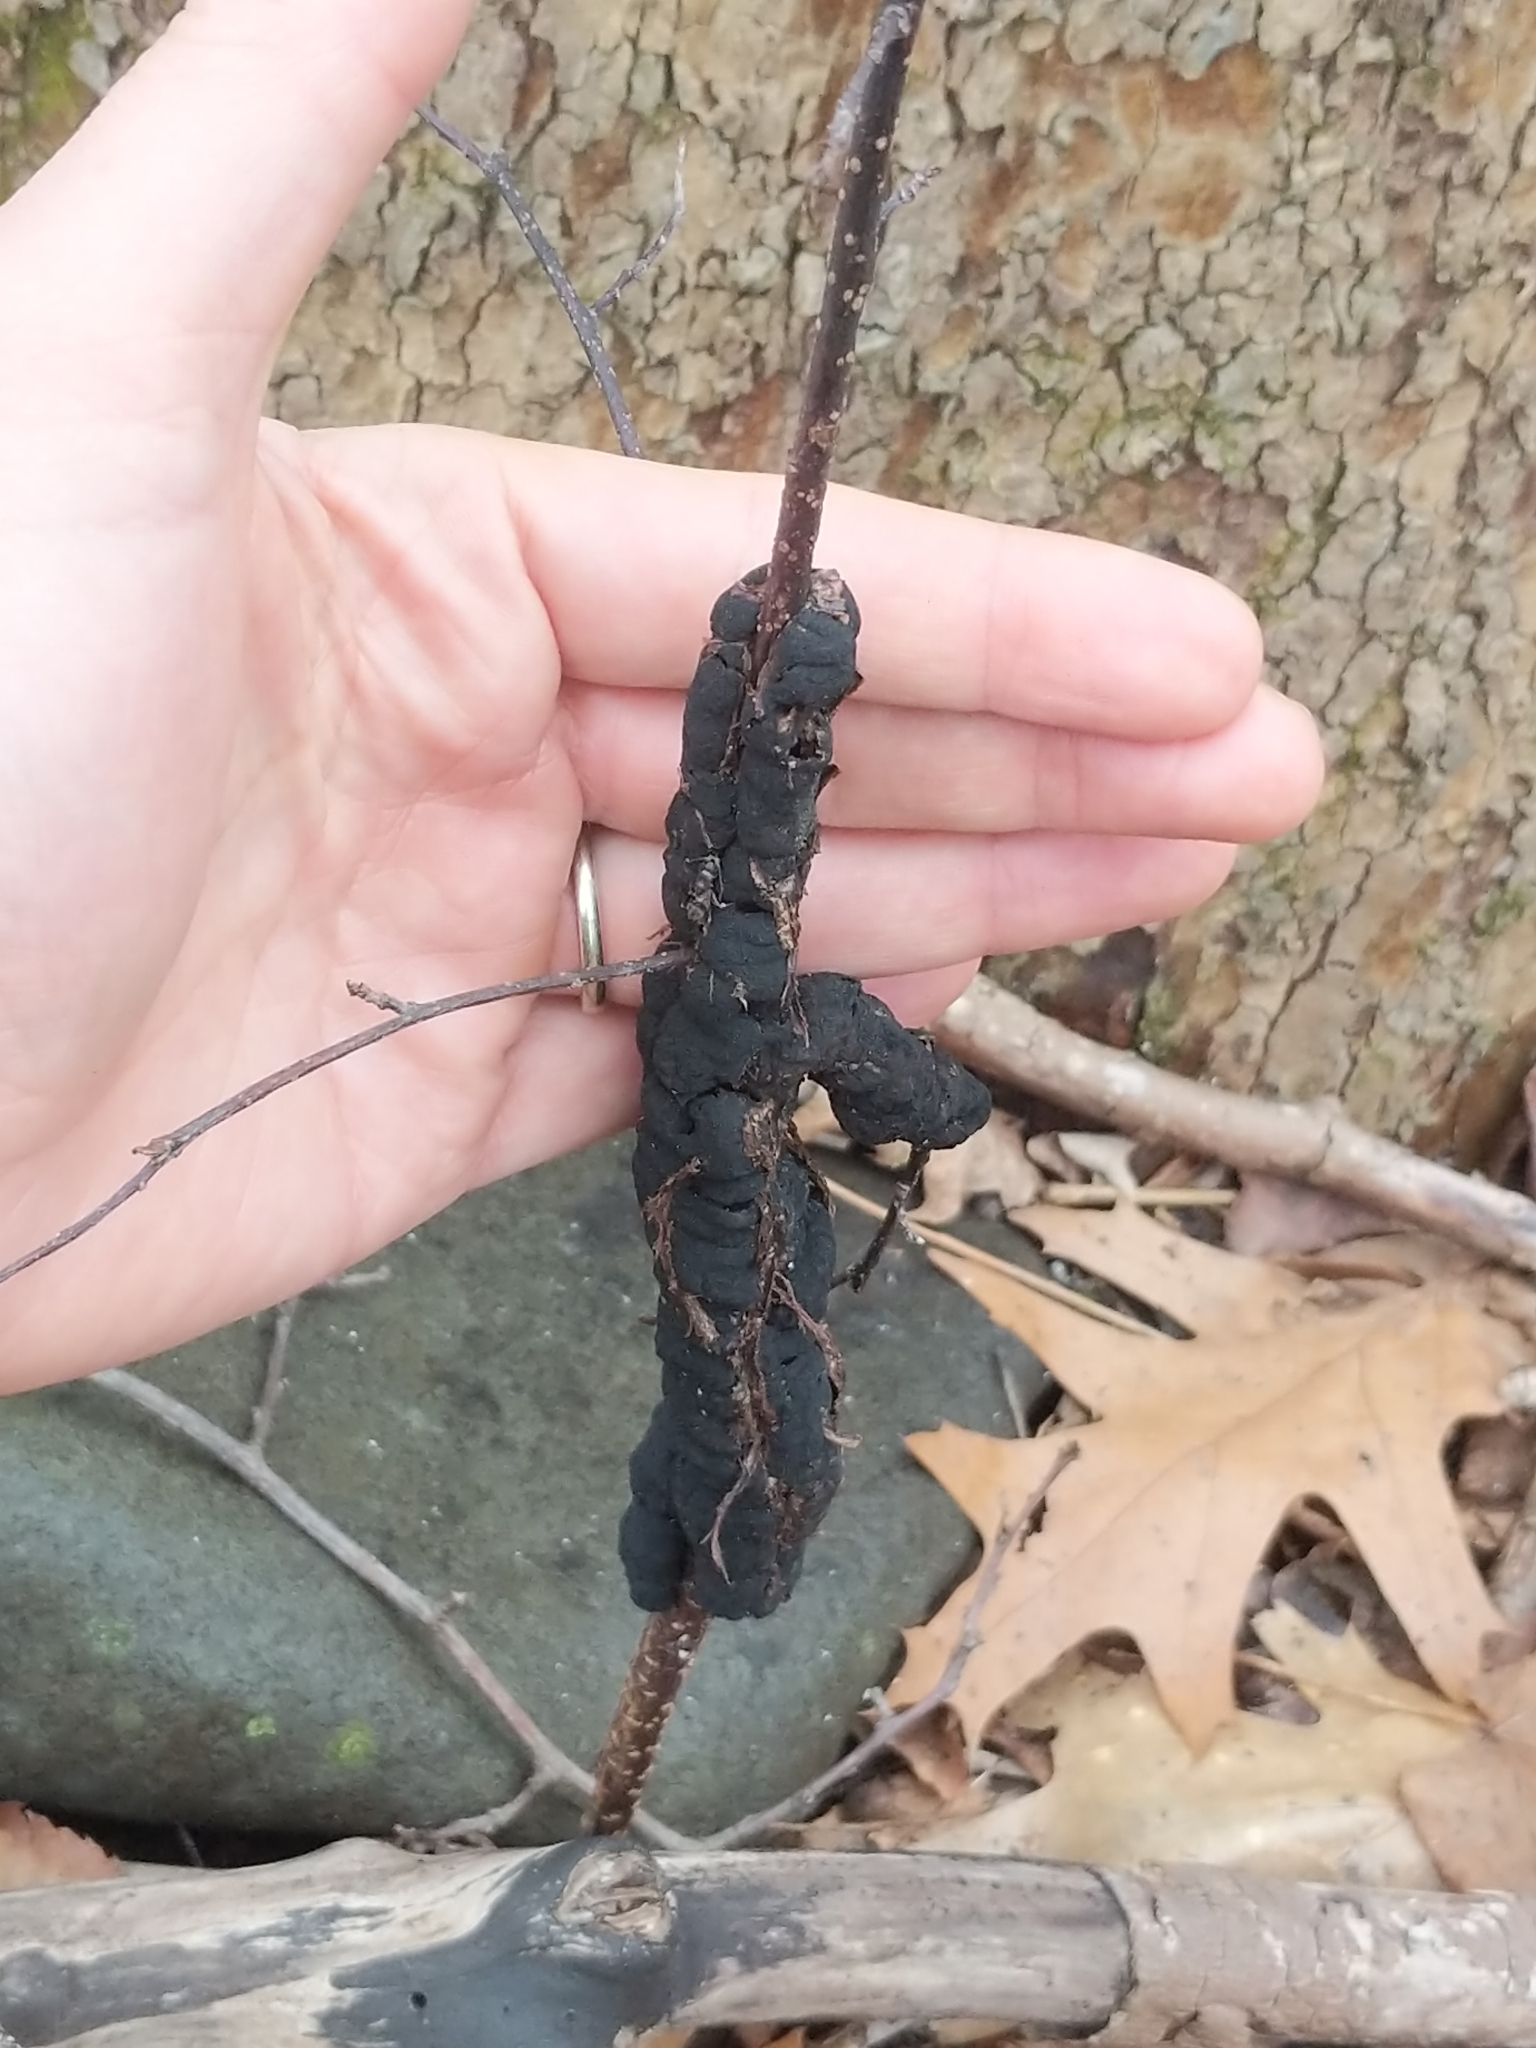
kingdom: Fungi
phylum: Ascomycota
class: Dothideomycetes
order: Venturiales
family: Venturiaceae
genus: Apiosporina
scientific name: Apiosporina morbosa
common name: Black knot
